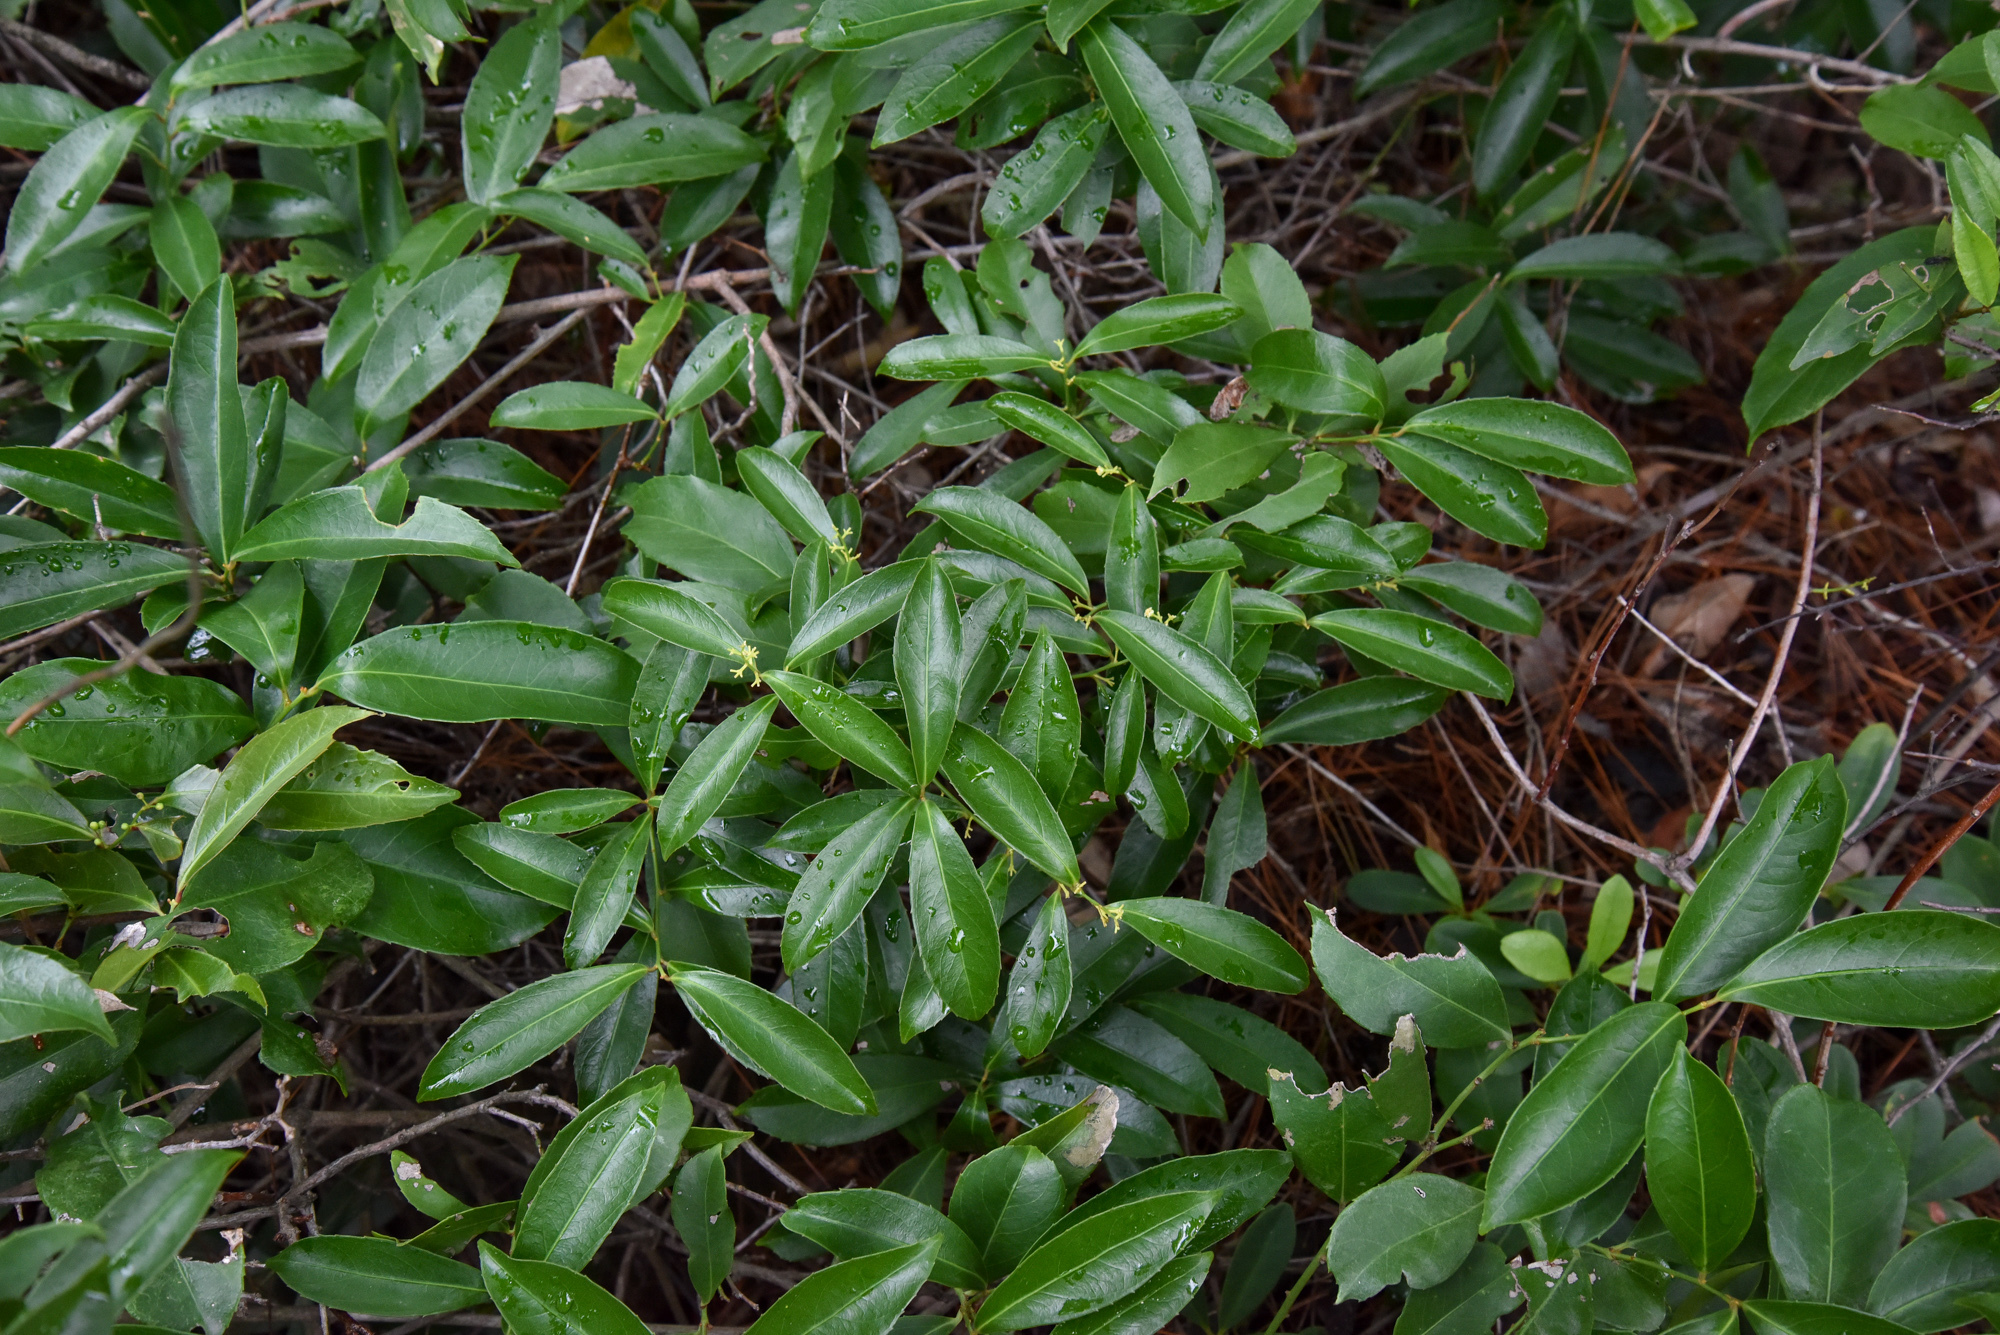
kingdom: Plantae
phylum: Tracheophyta
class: Magnoliopsida
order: Celastrales
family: Celastraceae
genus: Celastrus
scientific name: Celastrus hindsii
